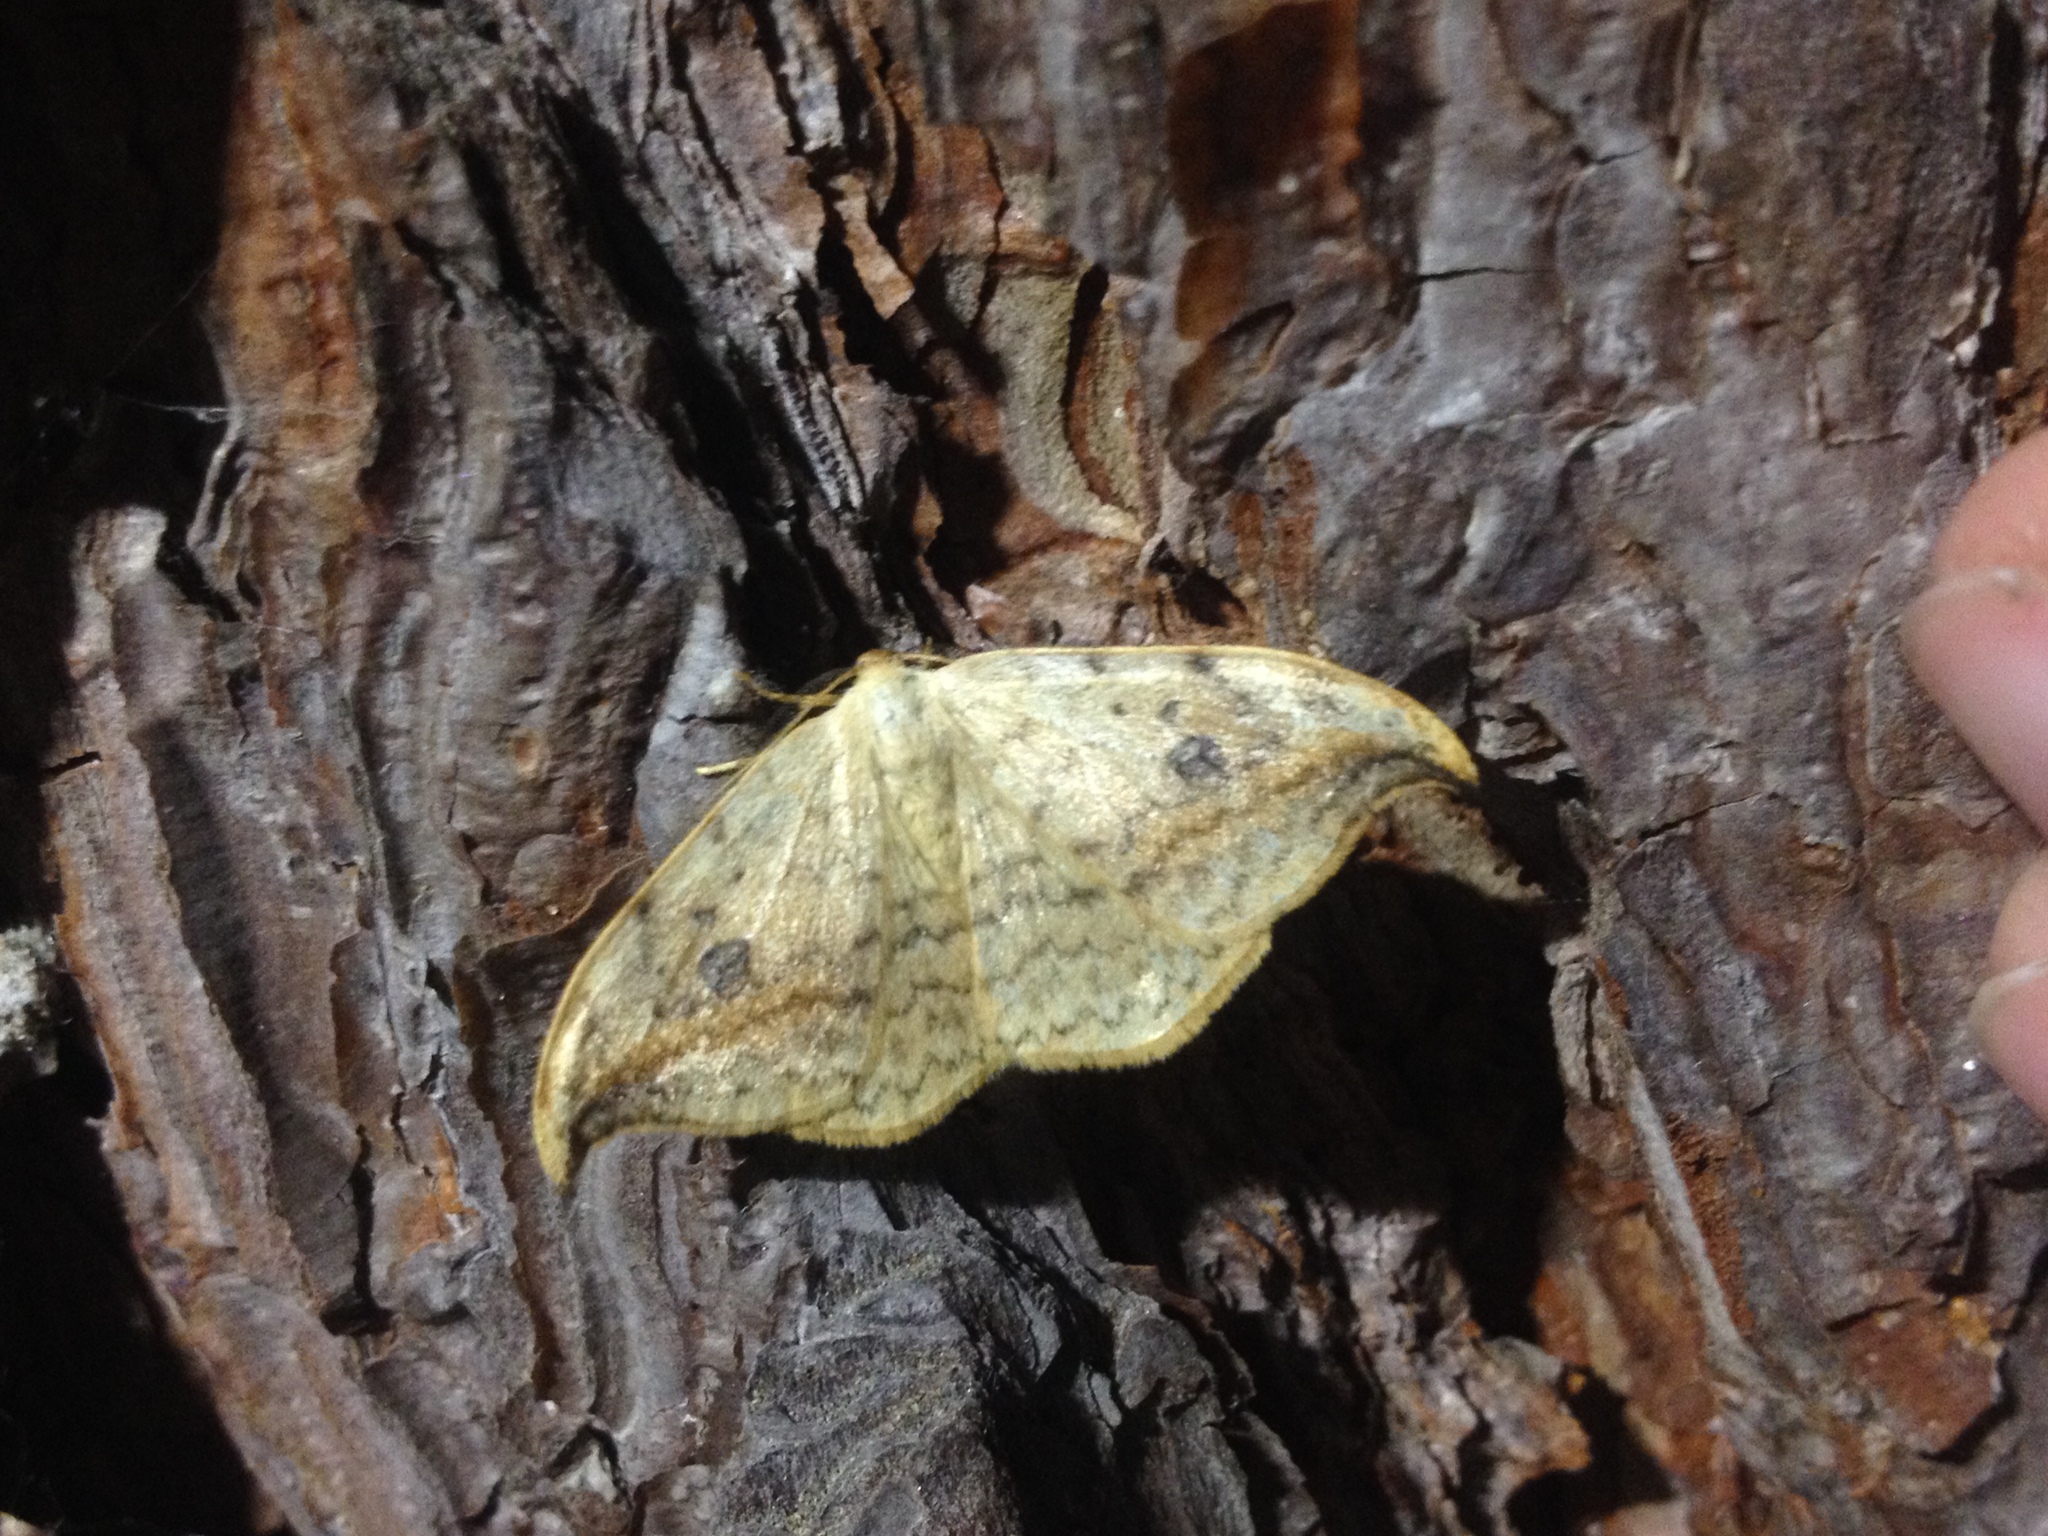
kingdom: Animalia
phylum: Arthropoda
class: Insecta
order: Lepidoptera
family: Drepanidae
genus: Drepana
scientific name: Drepana falcataria
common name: Pebble hook-tip
